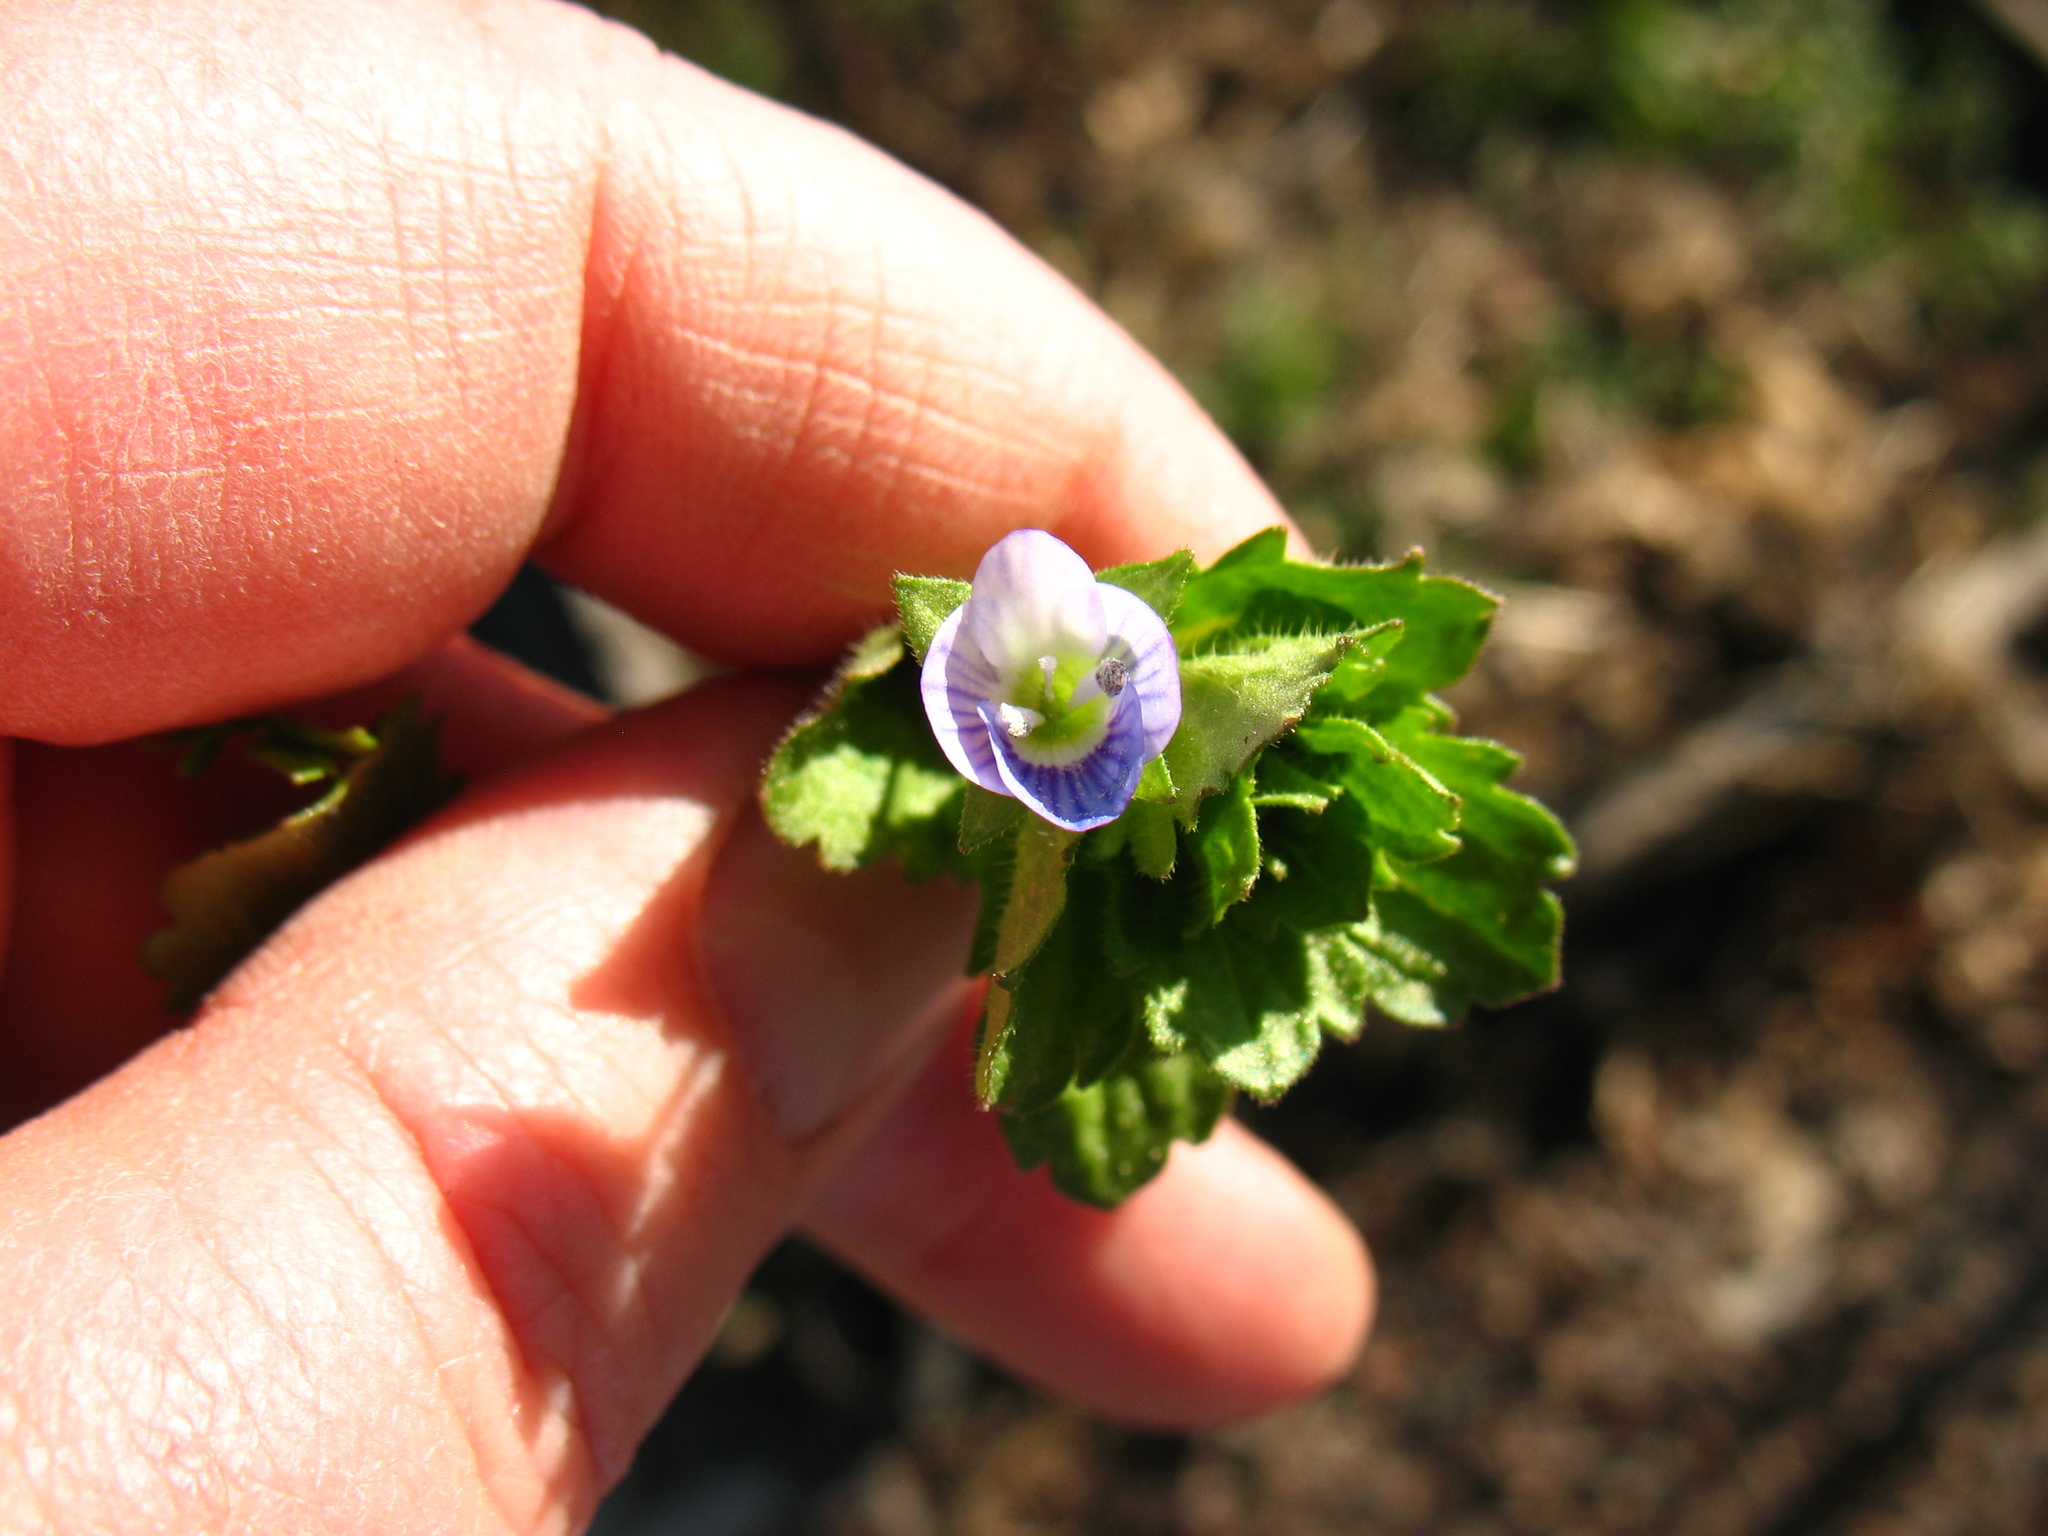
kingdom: Plantae
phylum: Tracheophyta
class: Magnoliopsida
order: Lamiales
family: Plantaginaceae
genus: Veronica
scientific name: Veronica persica
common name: Common field-speedwell
